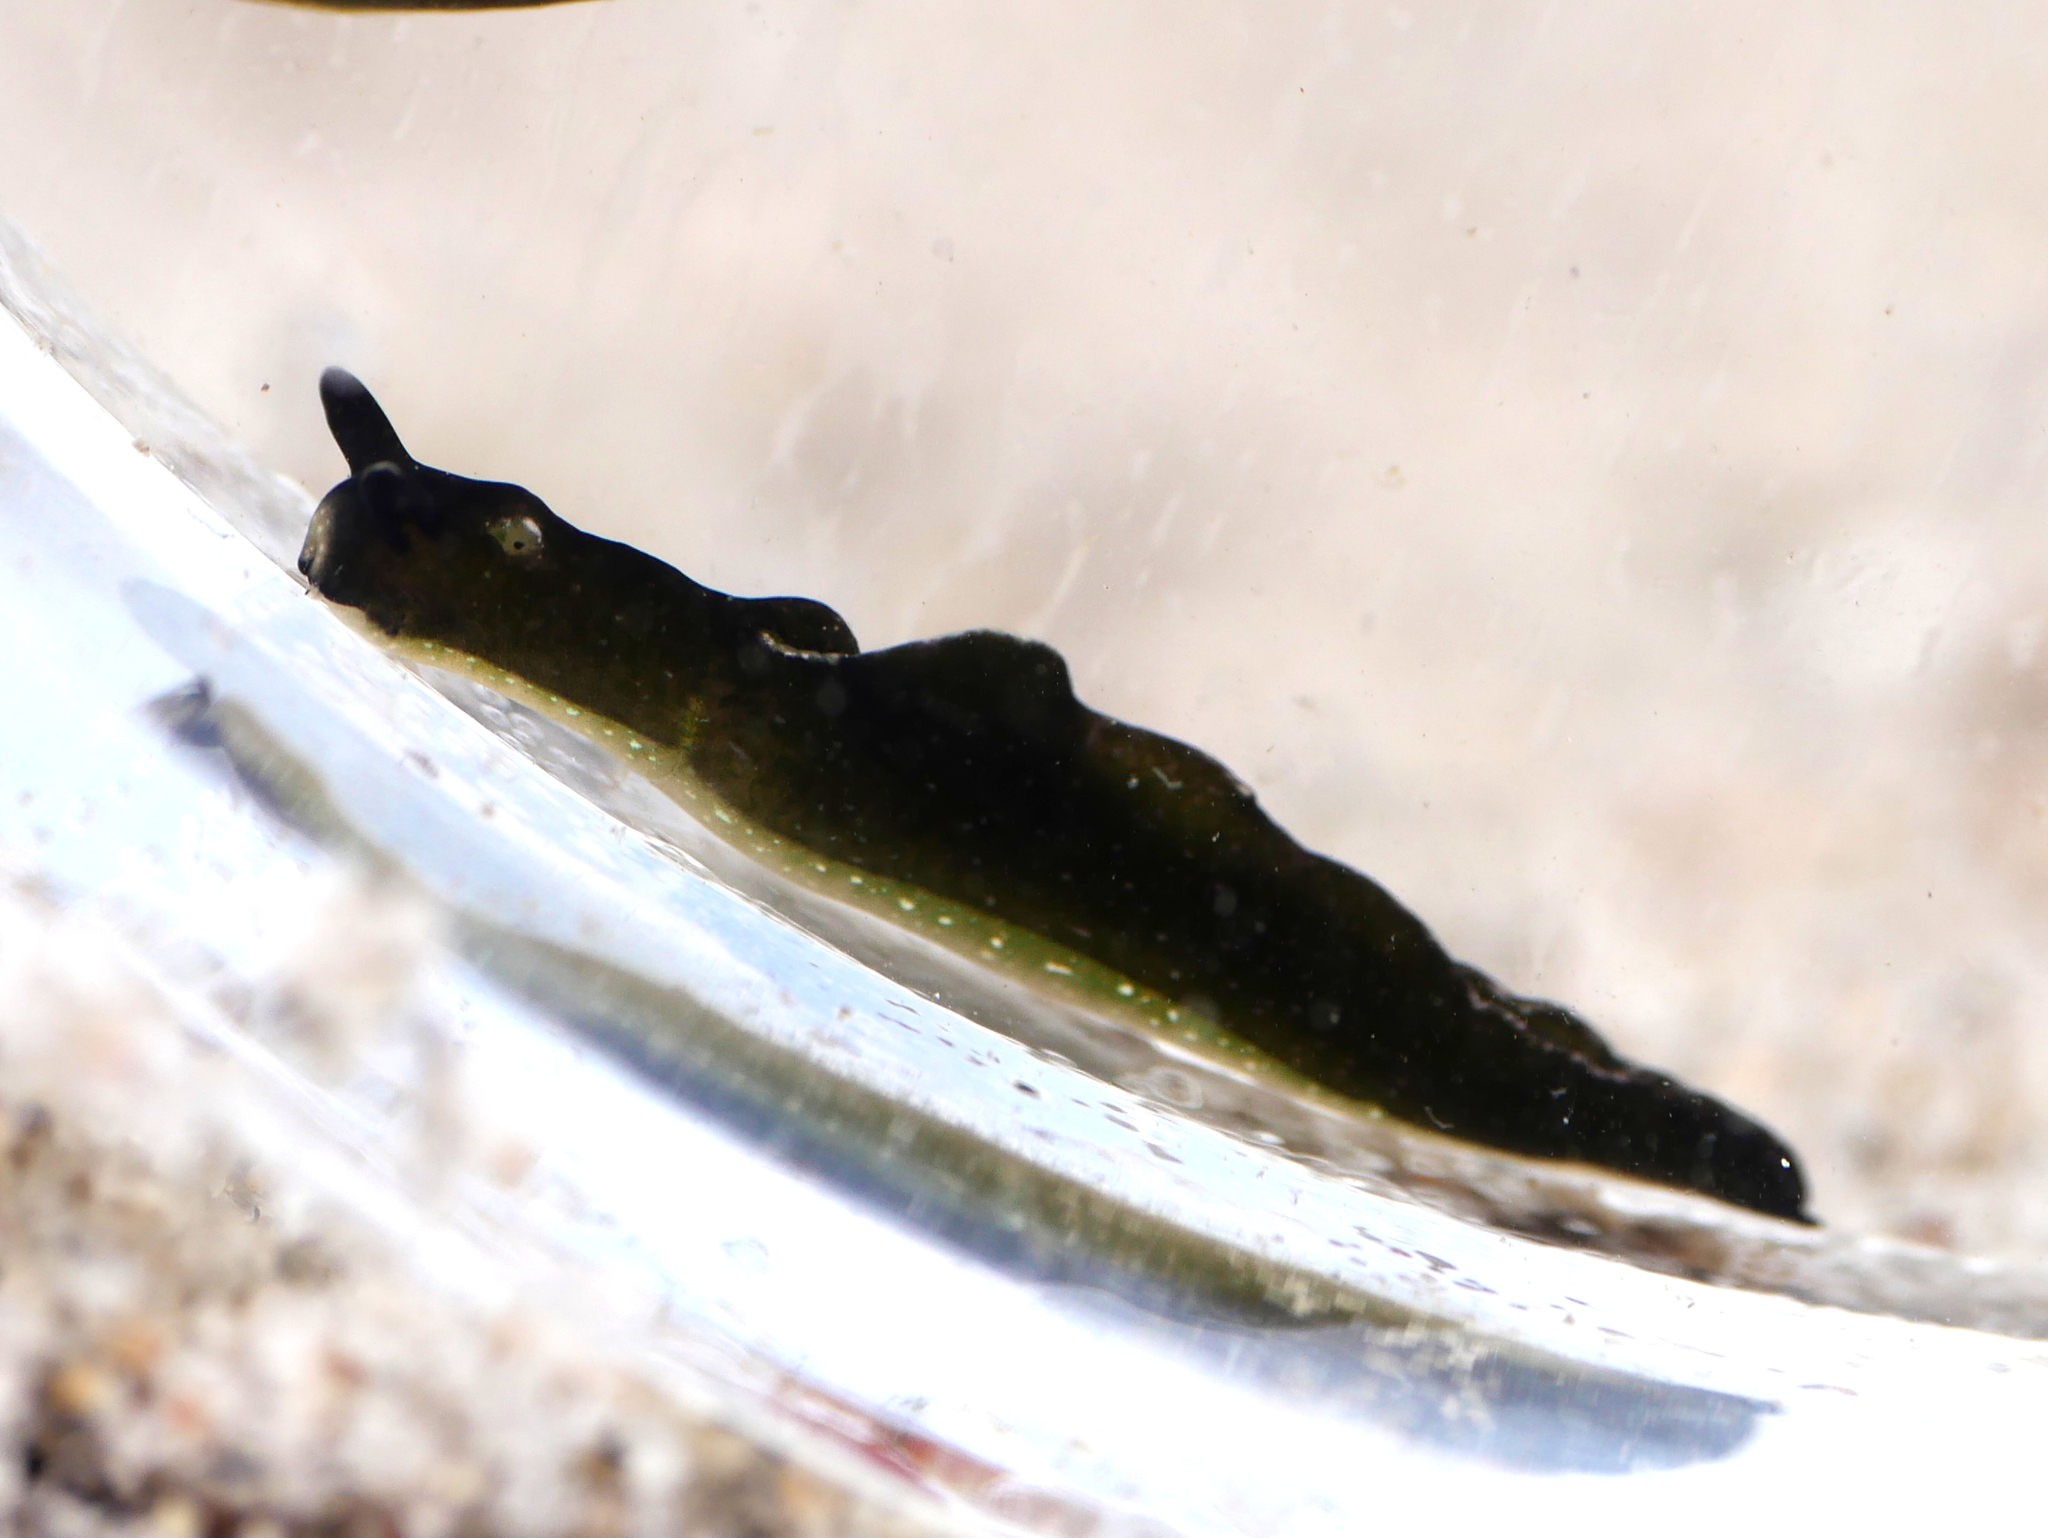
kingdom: Animalia
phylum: Mollusca
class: Gastropoda
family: Plakobranchidae
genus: Elysia
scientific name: Elysia viridis
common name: Green elysia
